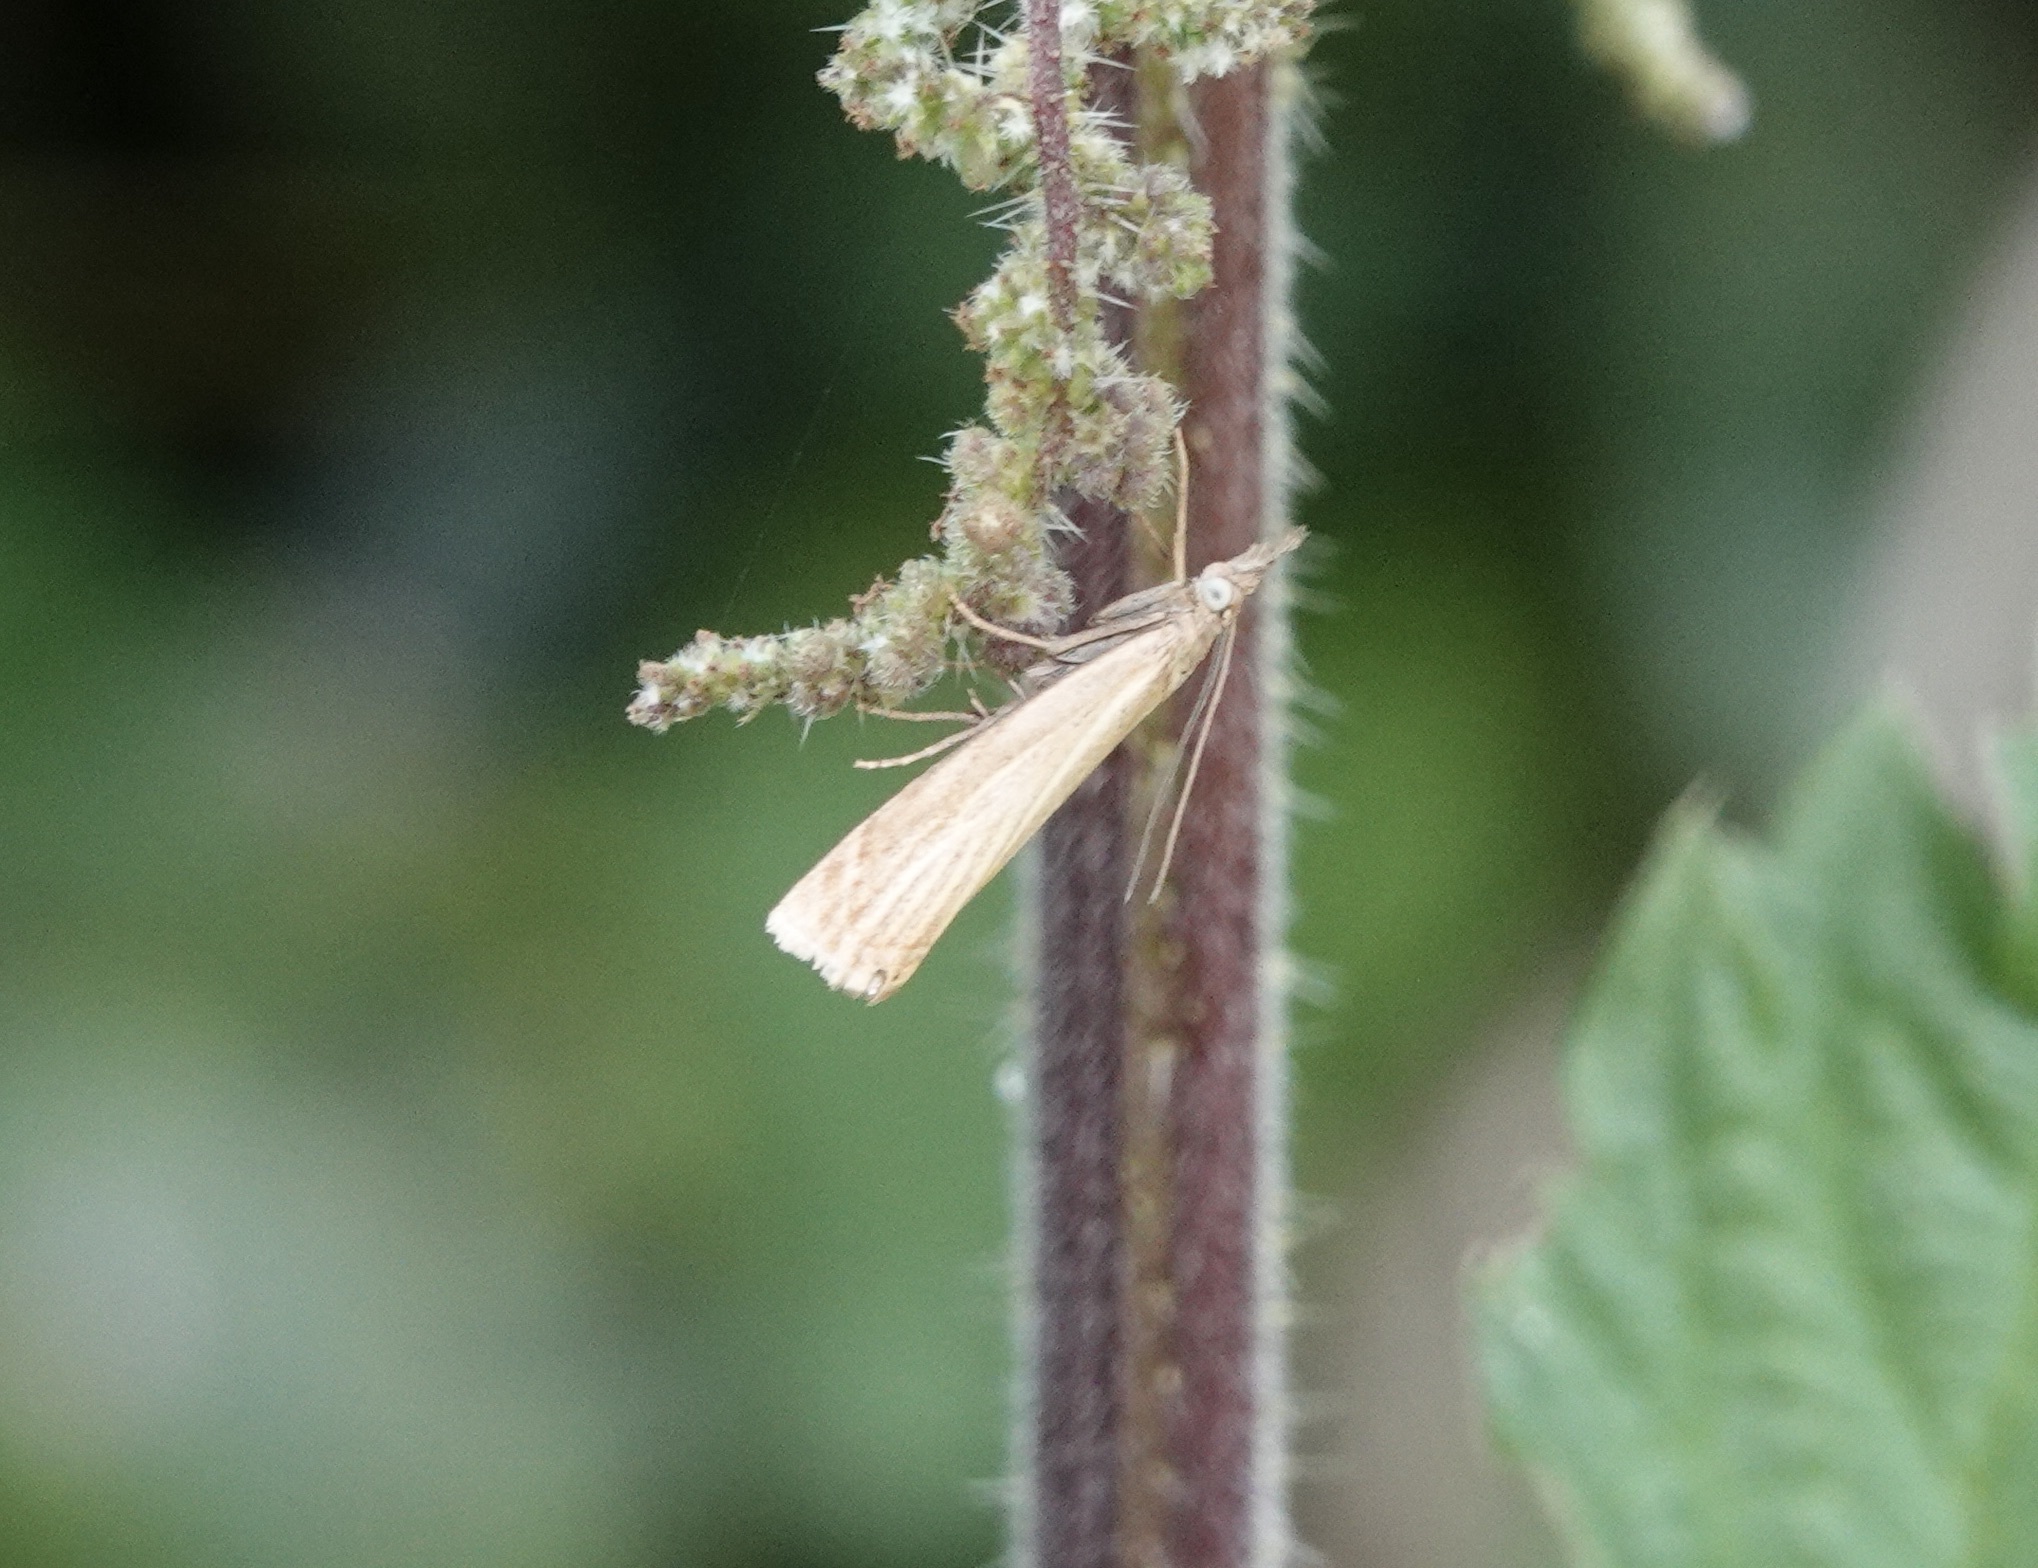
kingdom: Animalia
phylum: Arthropoda
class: Insecta
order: Lepidoptera
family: Crambidae
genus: Chrysoteuchia
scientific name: Chrysoteuchia culmella
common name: Garden grass-veneer
